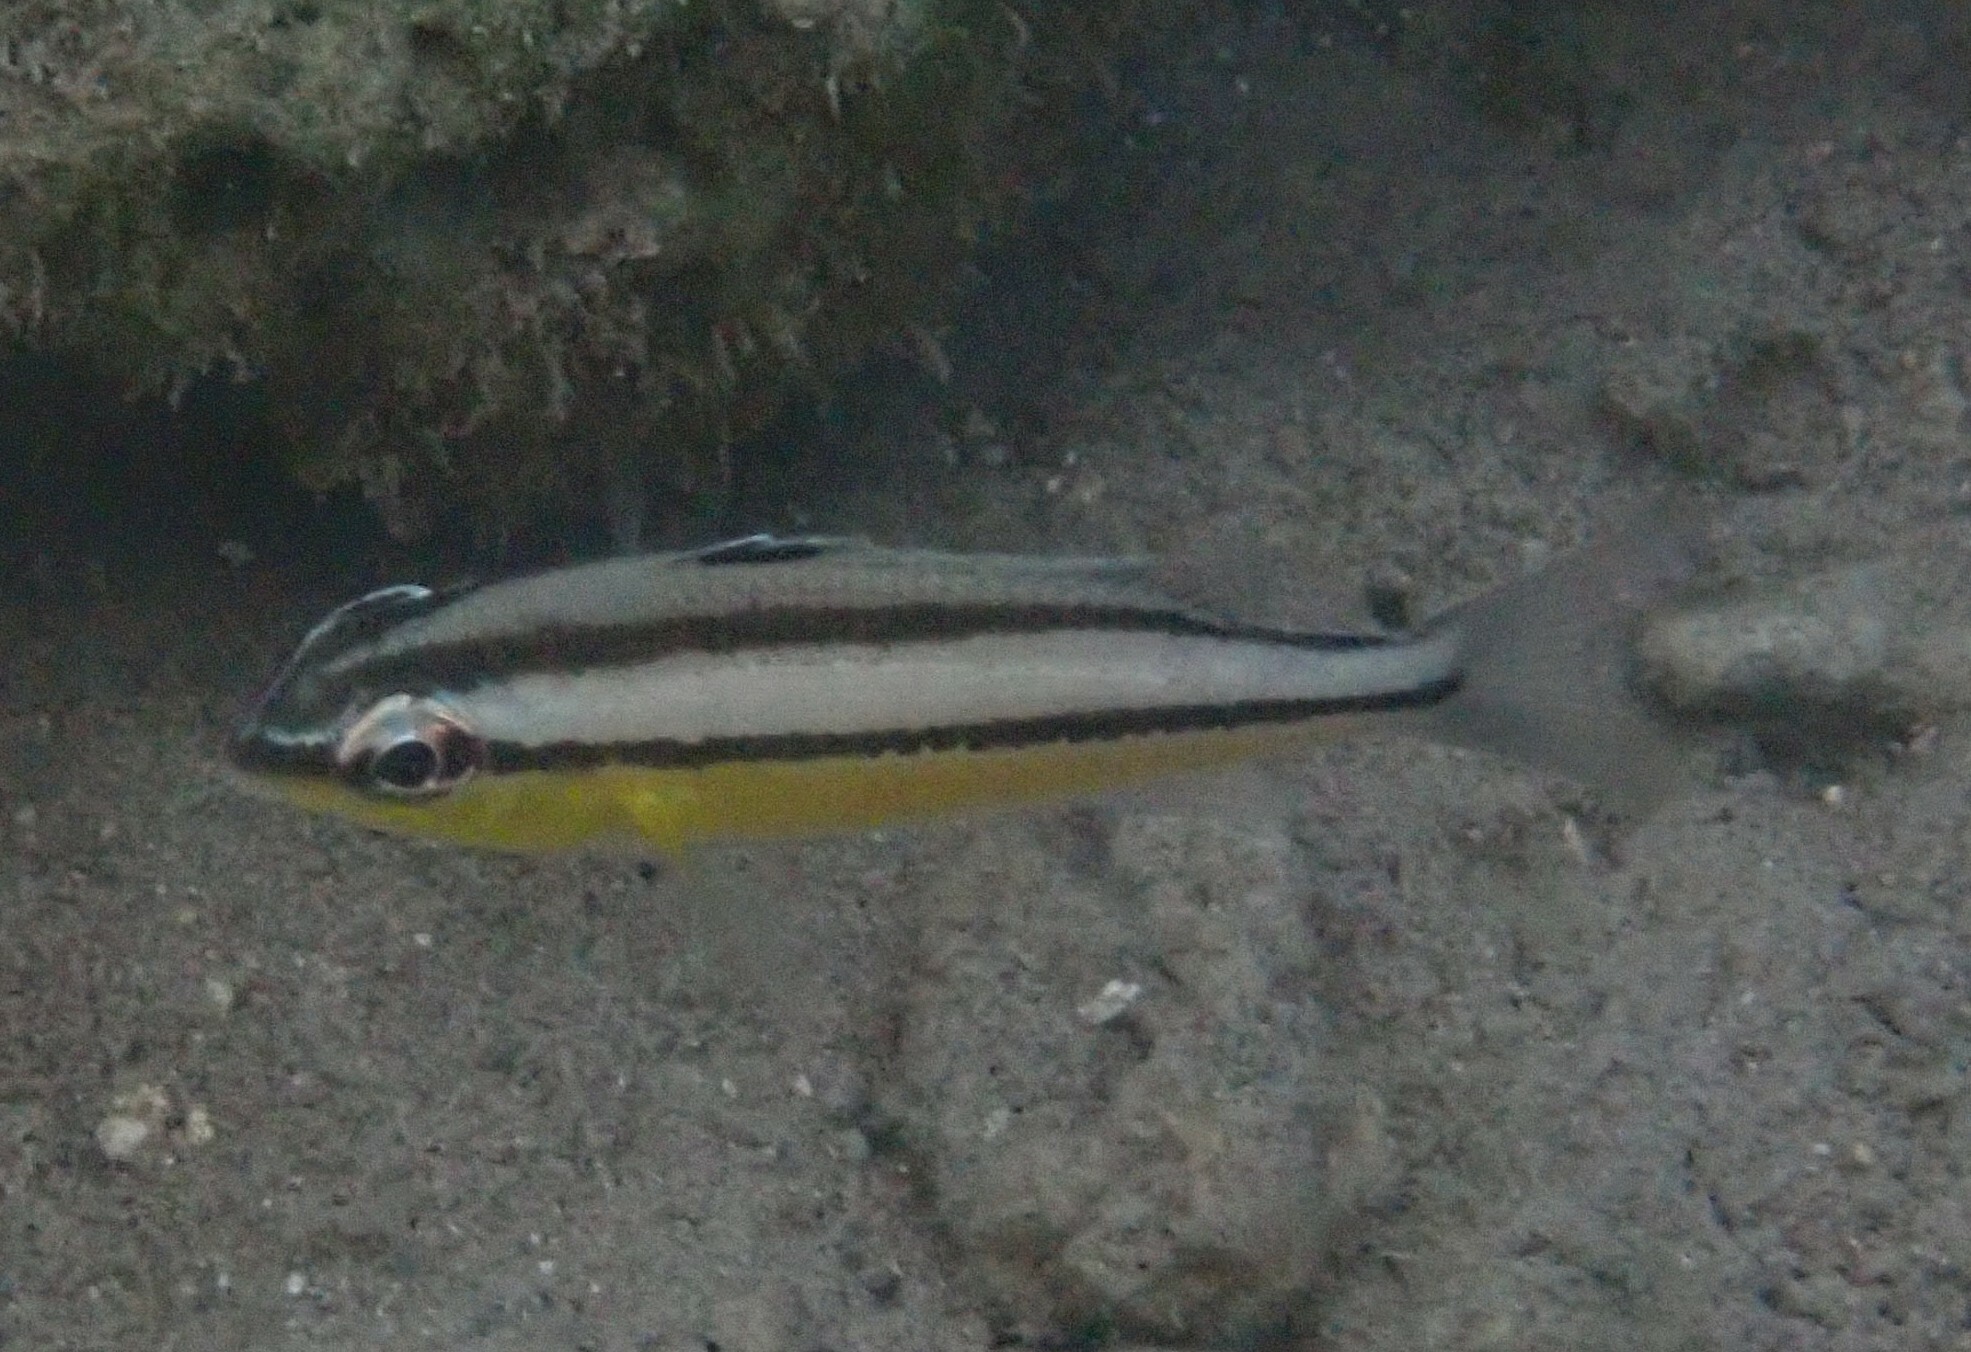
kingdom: Animalia
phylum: Chordata
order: Perciformes
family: Nemipteridae
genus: Scolopsis
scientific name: Scolopsis margaritifera
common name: Pearly monocle bream
